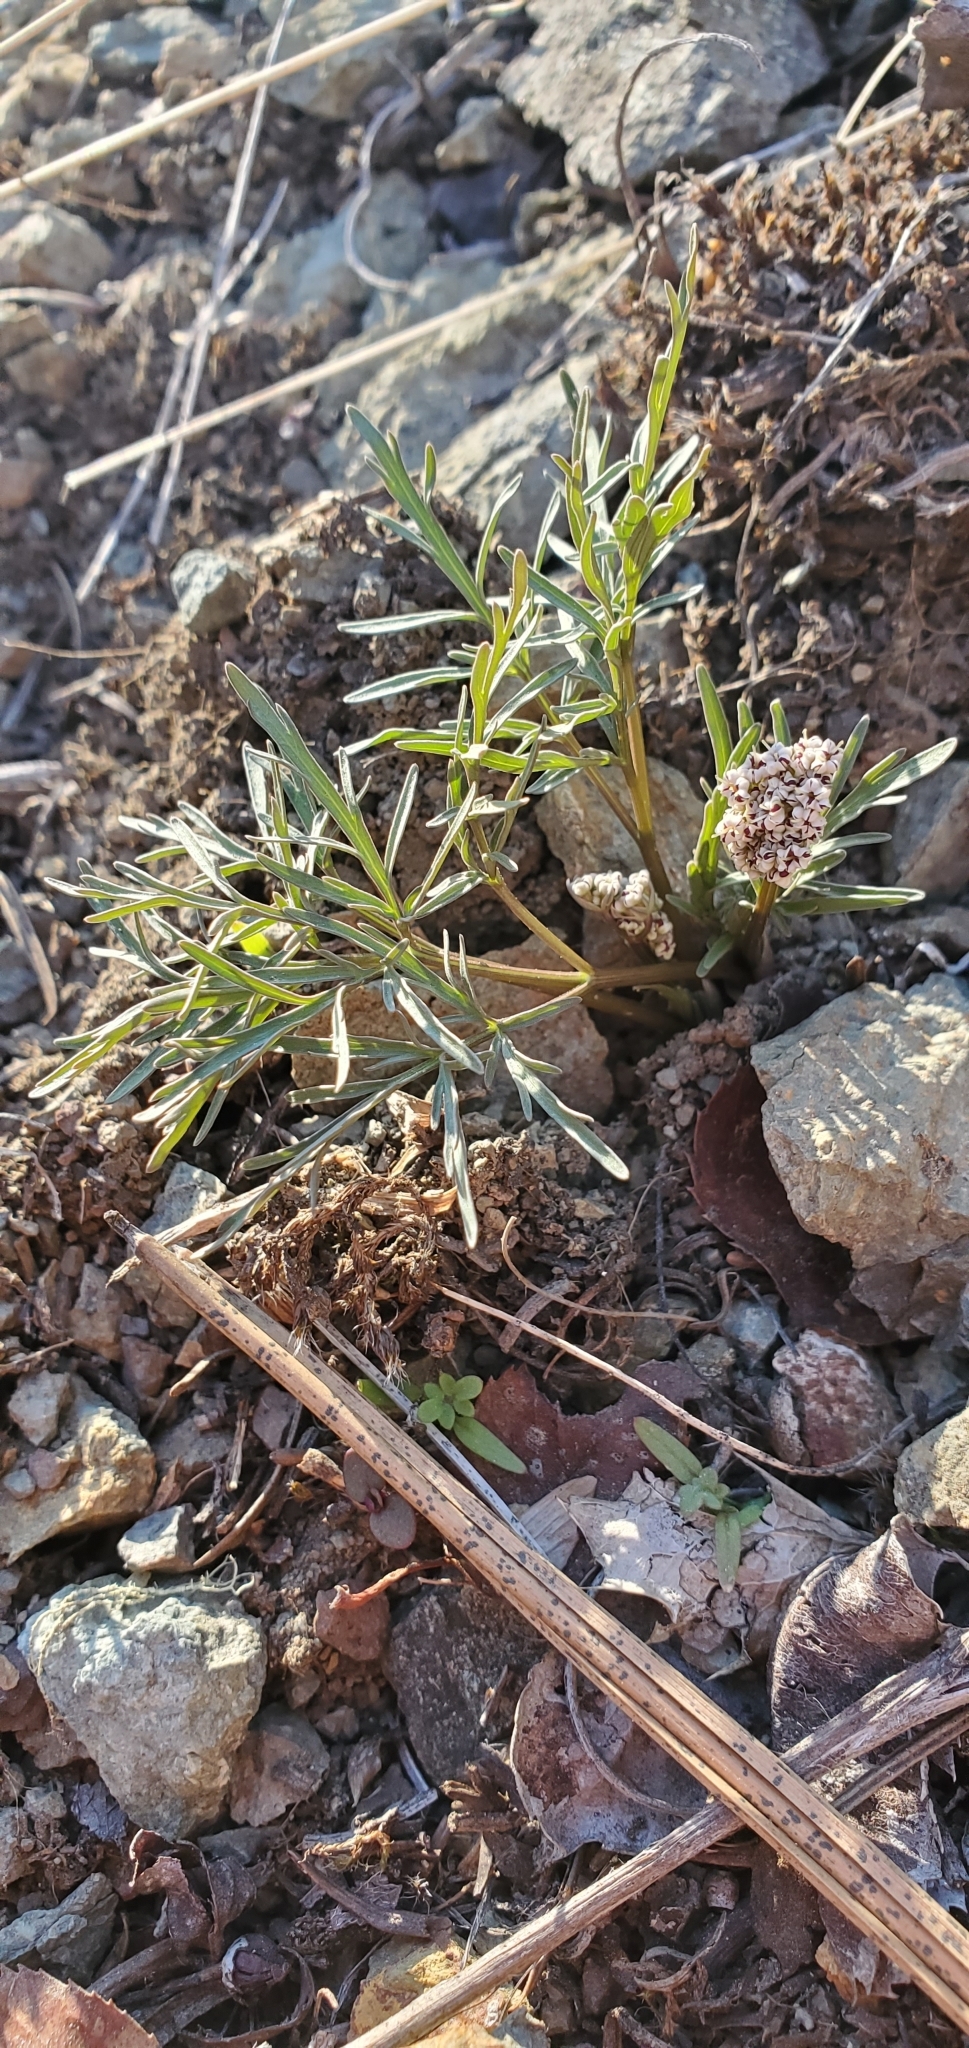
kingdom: Plantae
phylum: Tracheophyta
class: Magnoliopsida
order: Apiales
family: Apiaceae
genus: Lomatium
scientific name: Lomatium geyeri
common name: Geyer's biscuitroot
